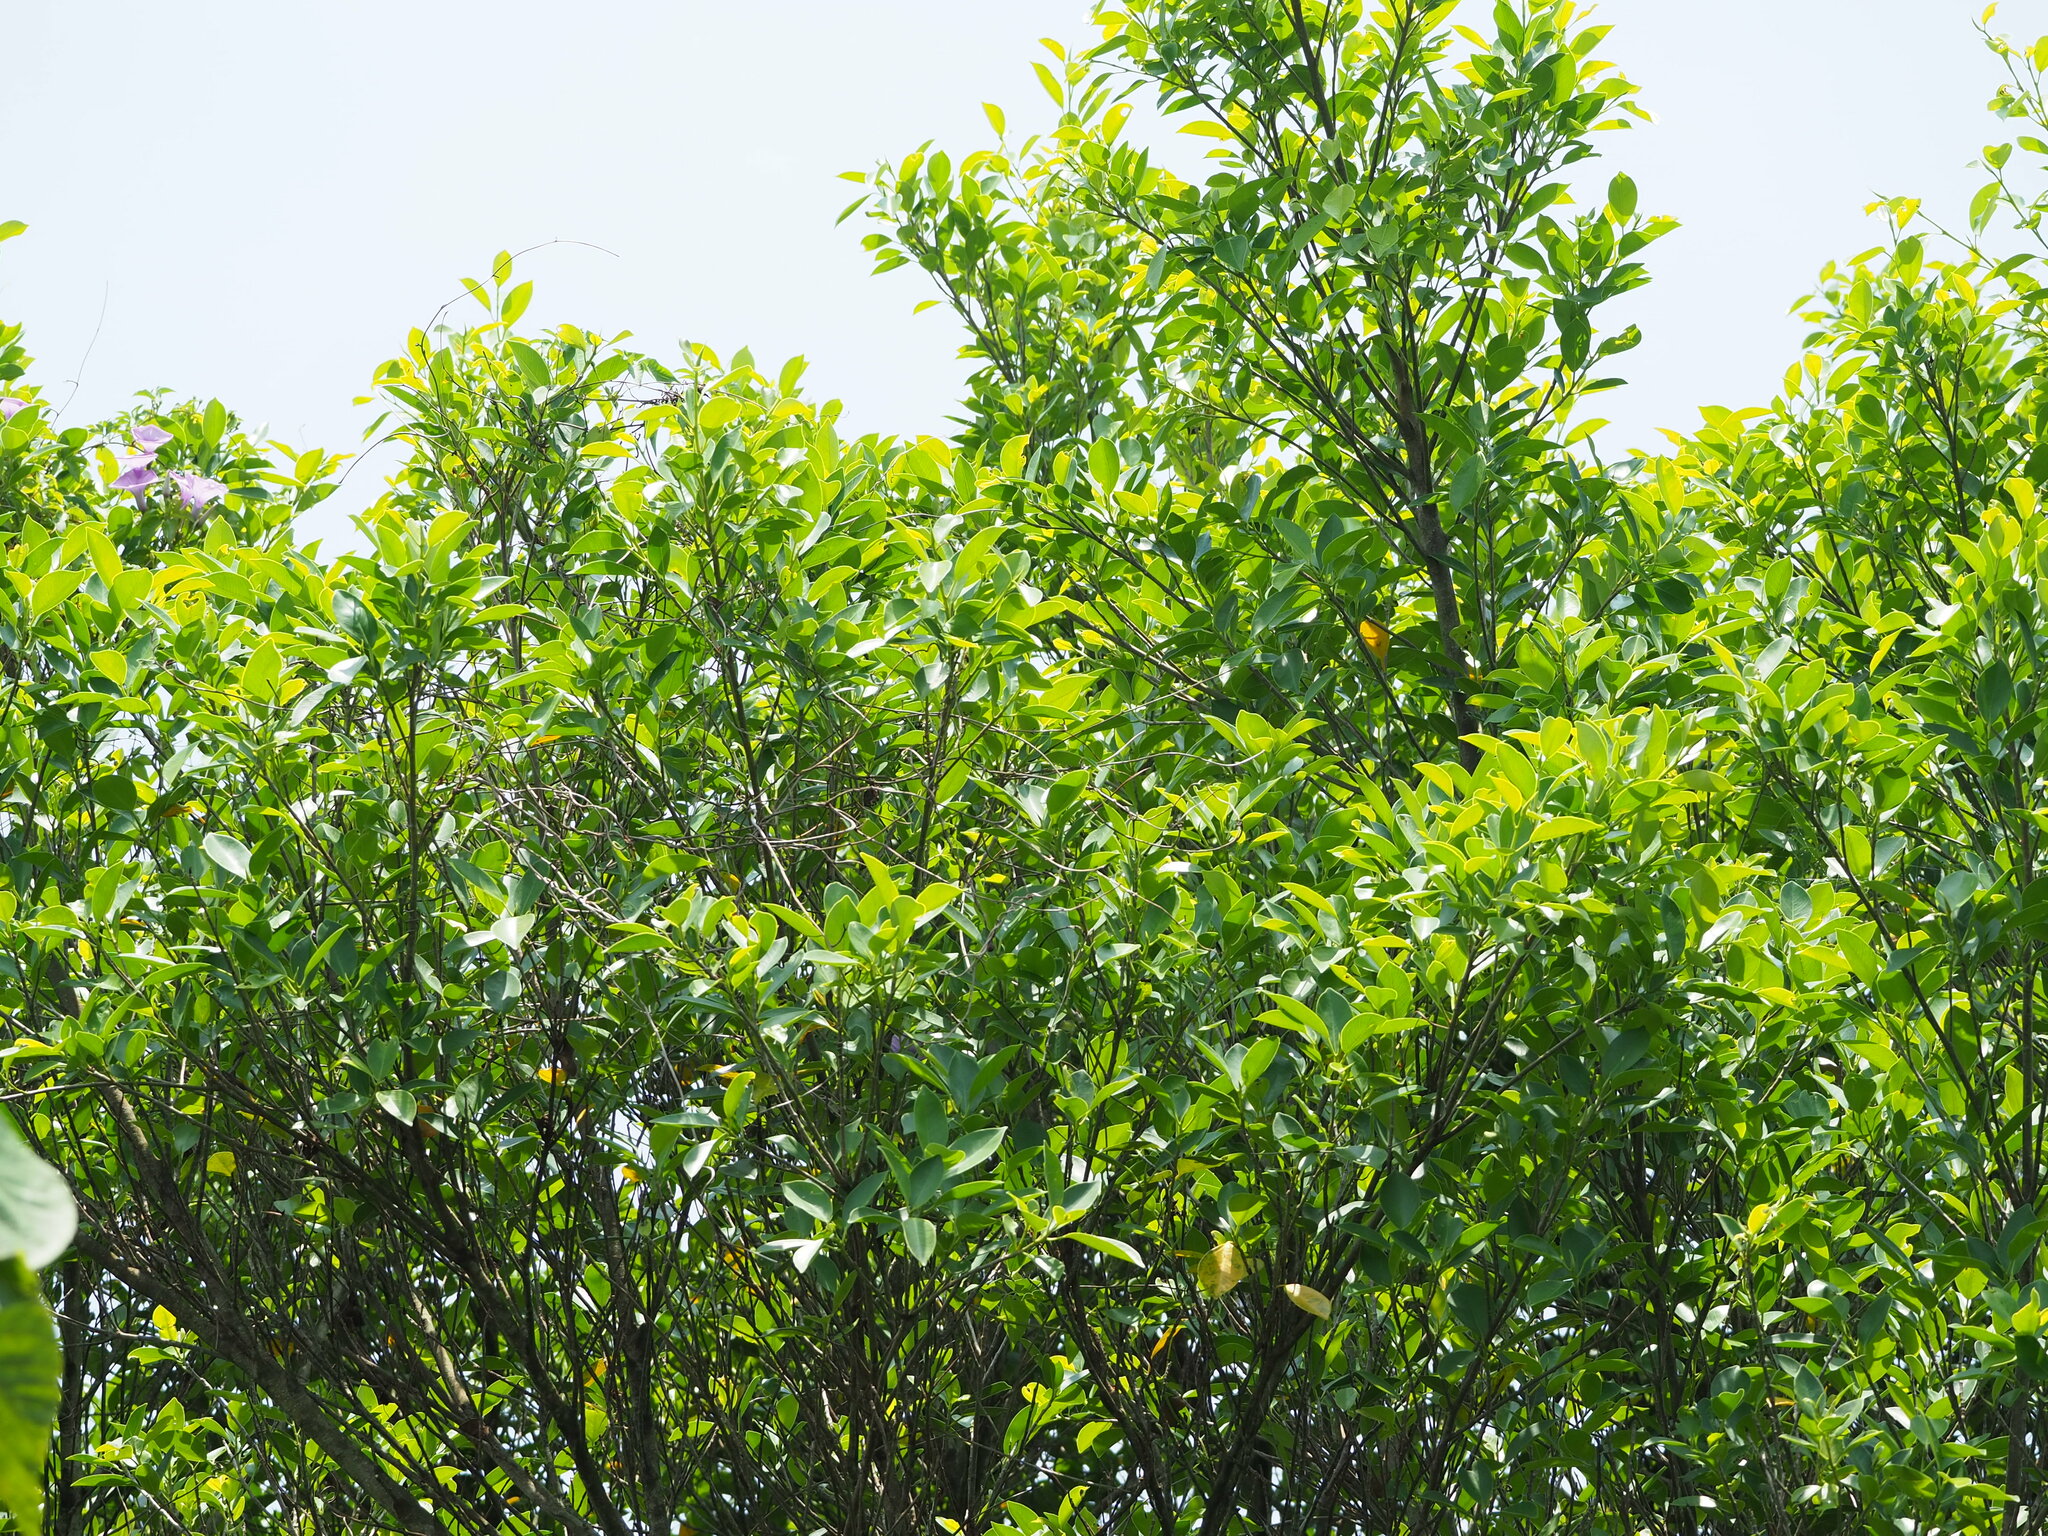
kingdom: Plantae
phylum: Tracheophyta
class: Magnoliopsida
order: Rosales
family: Moraceae
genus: Ficus
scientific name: Ficus microcarpa
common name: Chinese banyan
